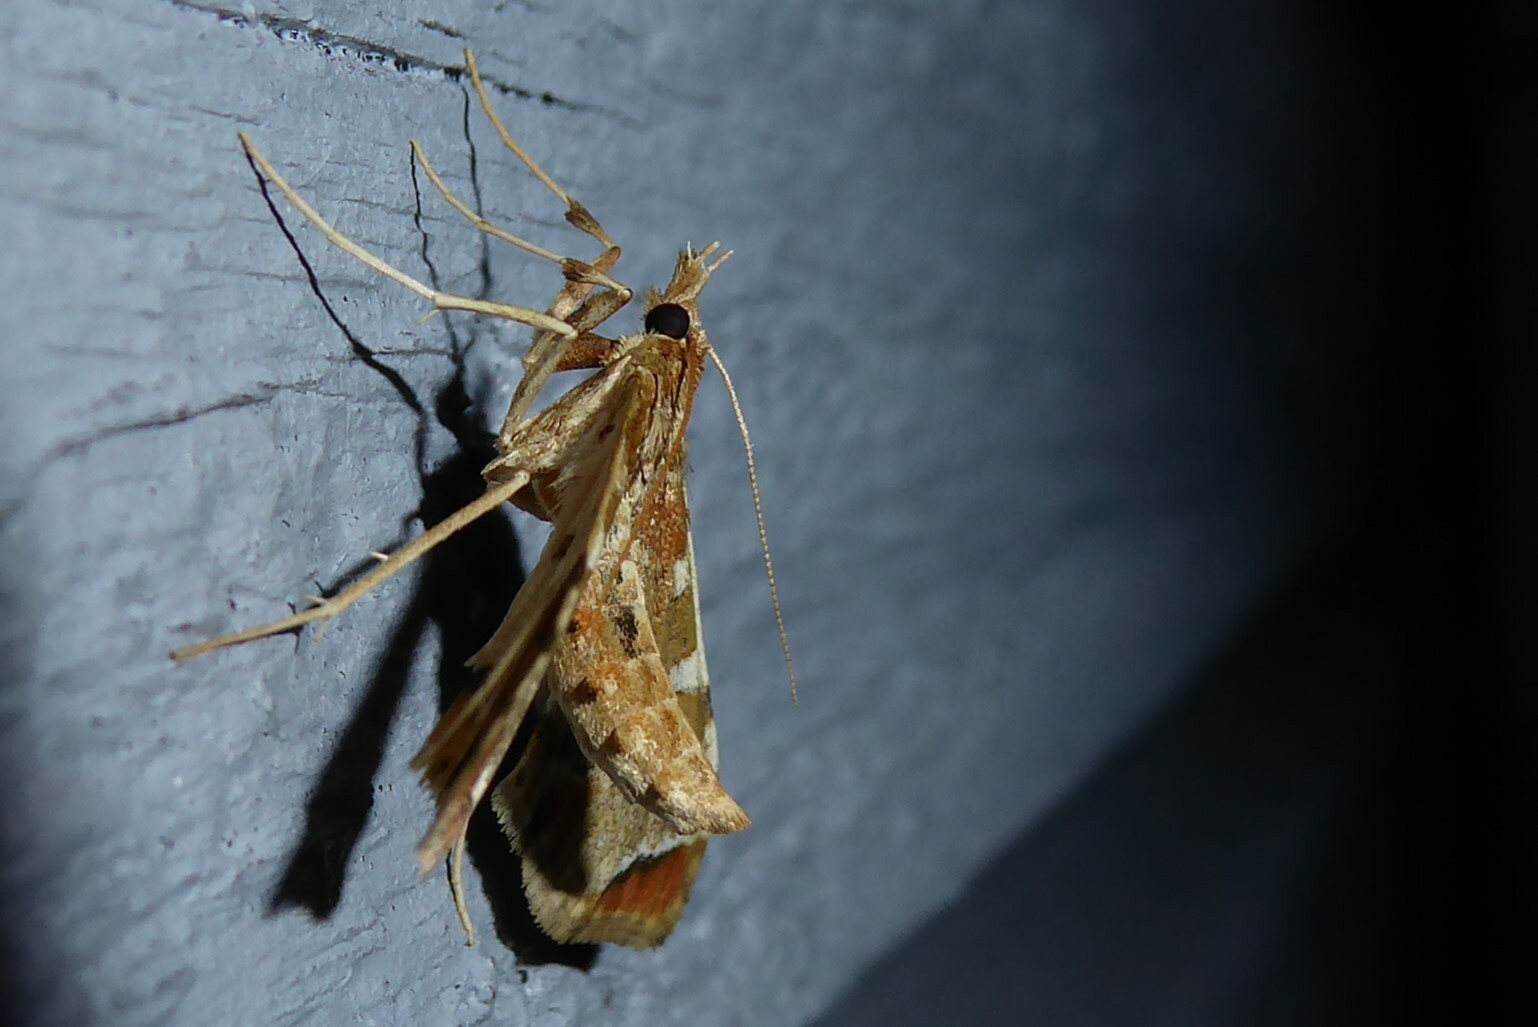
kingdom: Animalia
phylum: Arthropoda
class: Insecta
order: Lepidoptera
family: Crambidae
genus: Sceliodes
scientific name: Sceliodes cordalis
